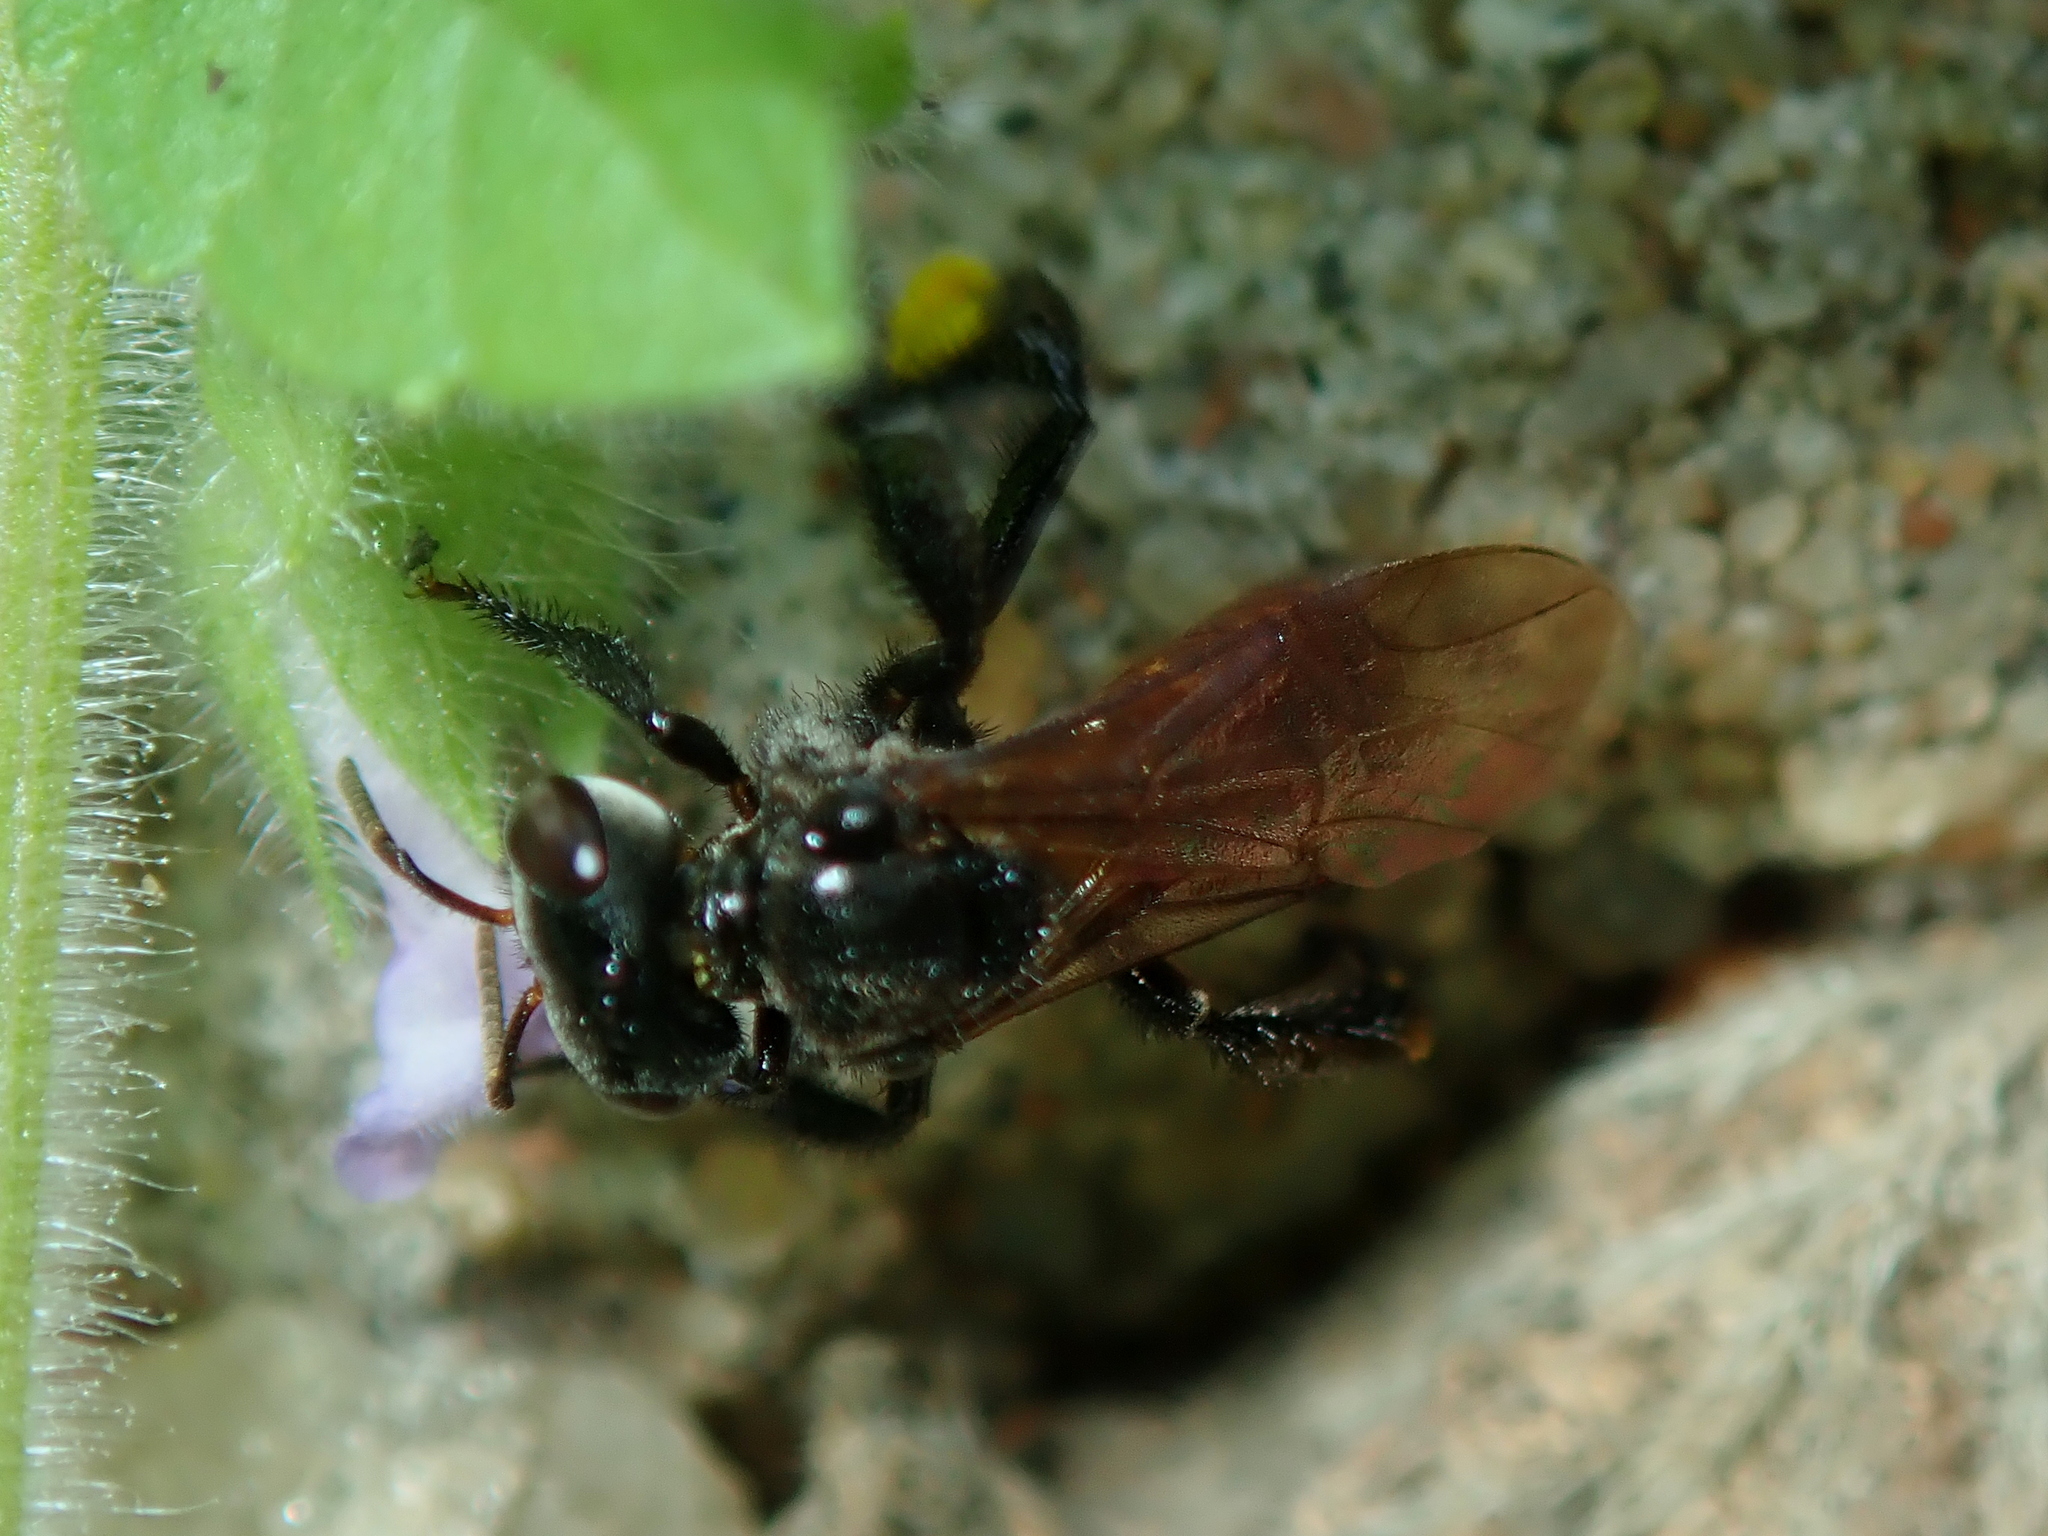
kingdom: Animalia
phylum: Arthropoda
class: Insecta
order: Hymenoptera
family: Apidae
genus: Trigona
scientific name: Trigona braueri
